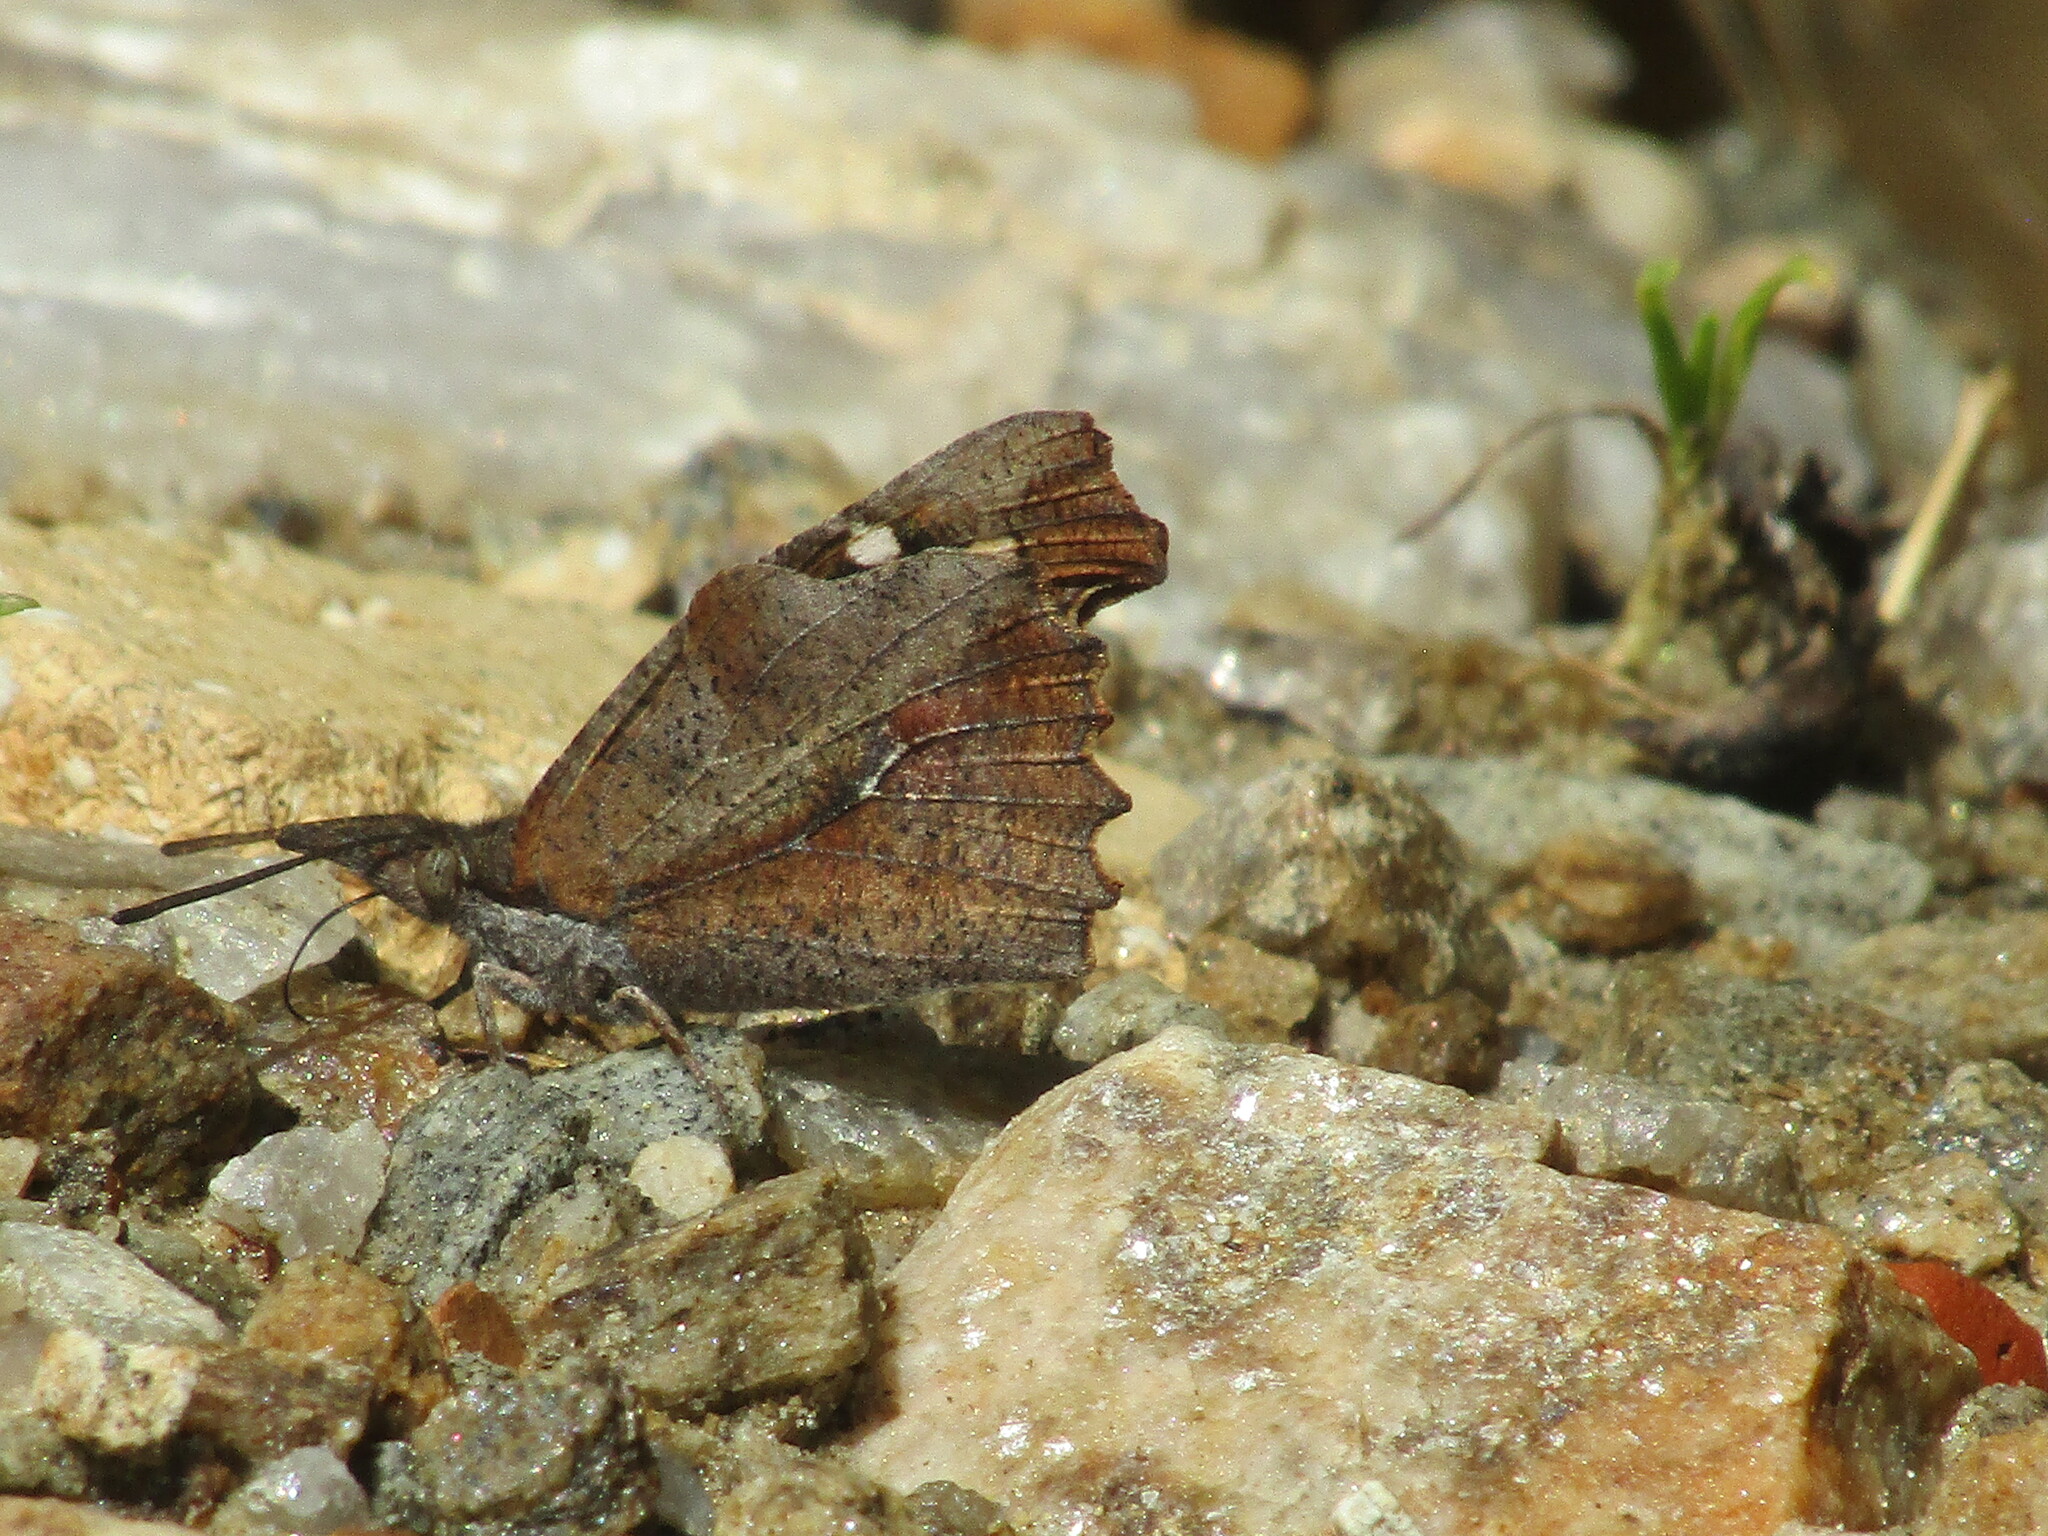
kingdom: Animalia
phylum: Arthropoda
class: Insecta
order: Lepidoptera
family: Nymphalidae
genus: Libythea
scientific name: Libythea celtis
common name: Nettle-tree butterfly
